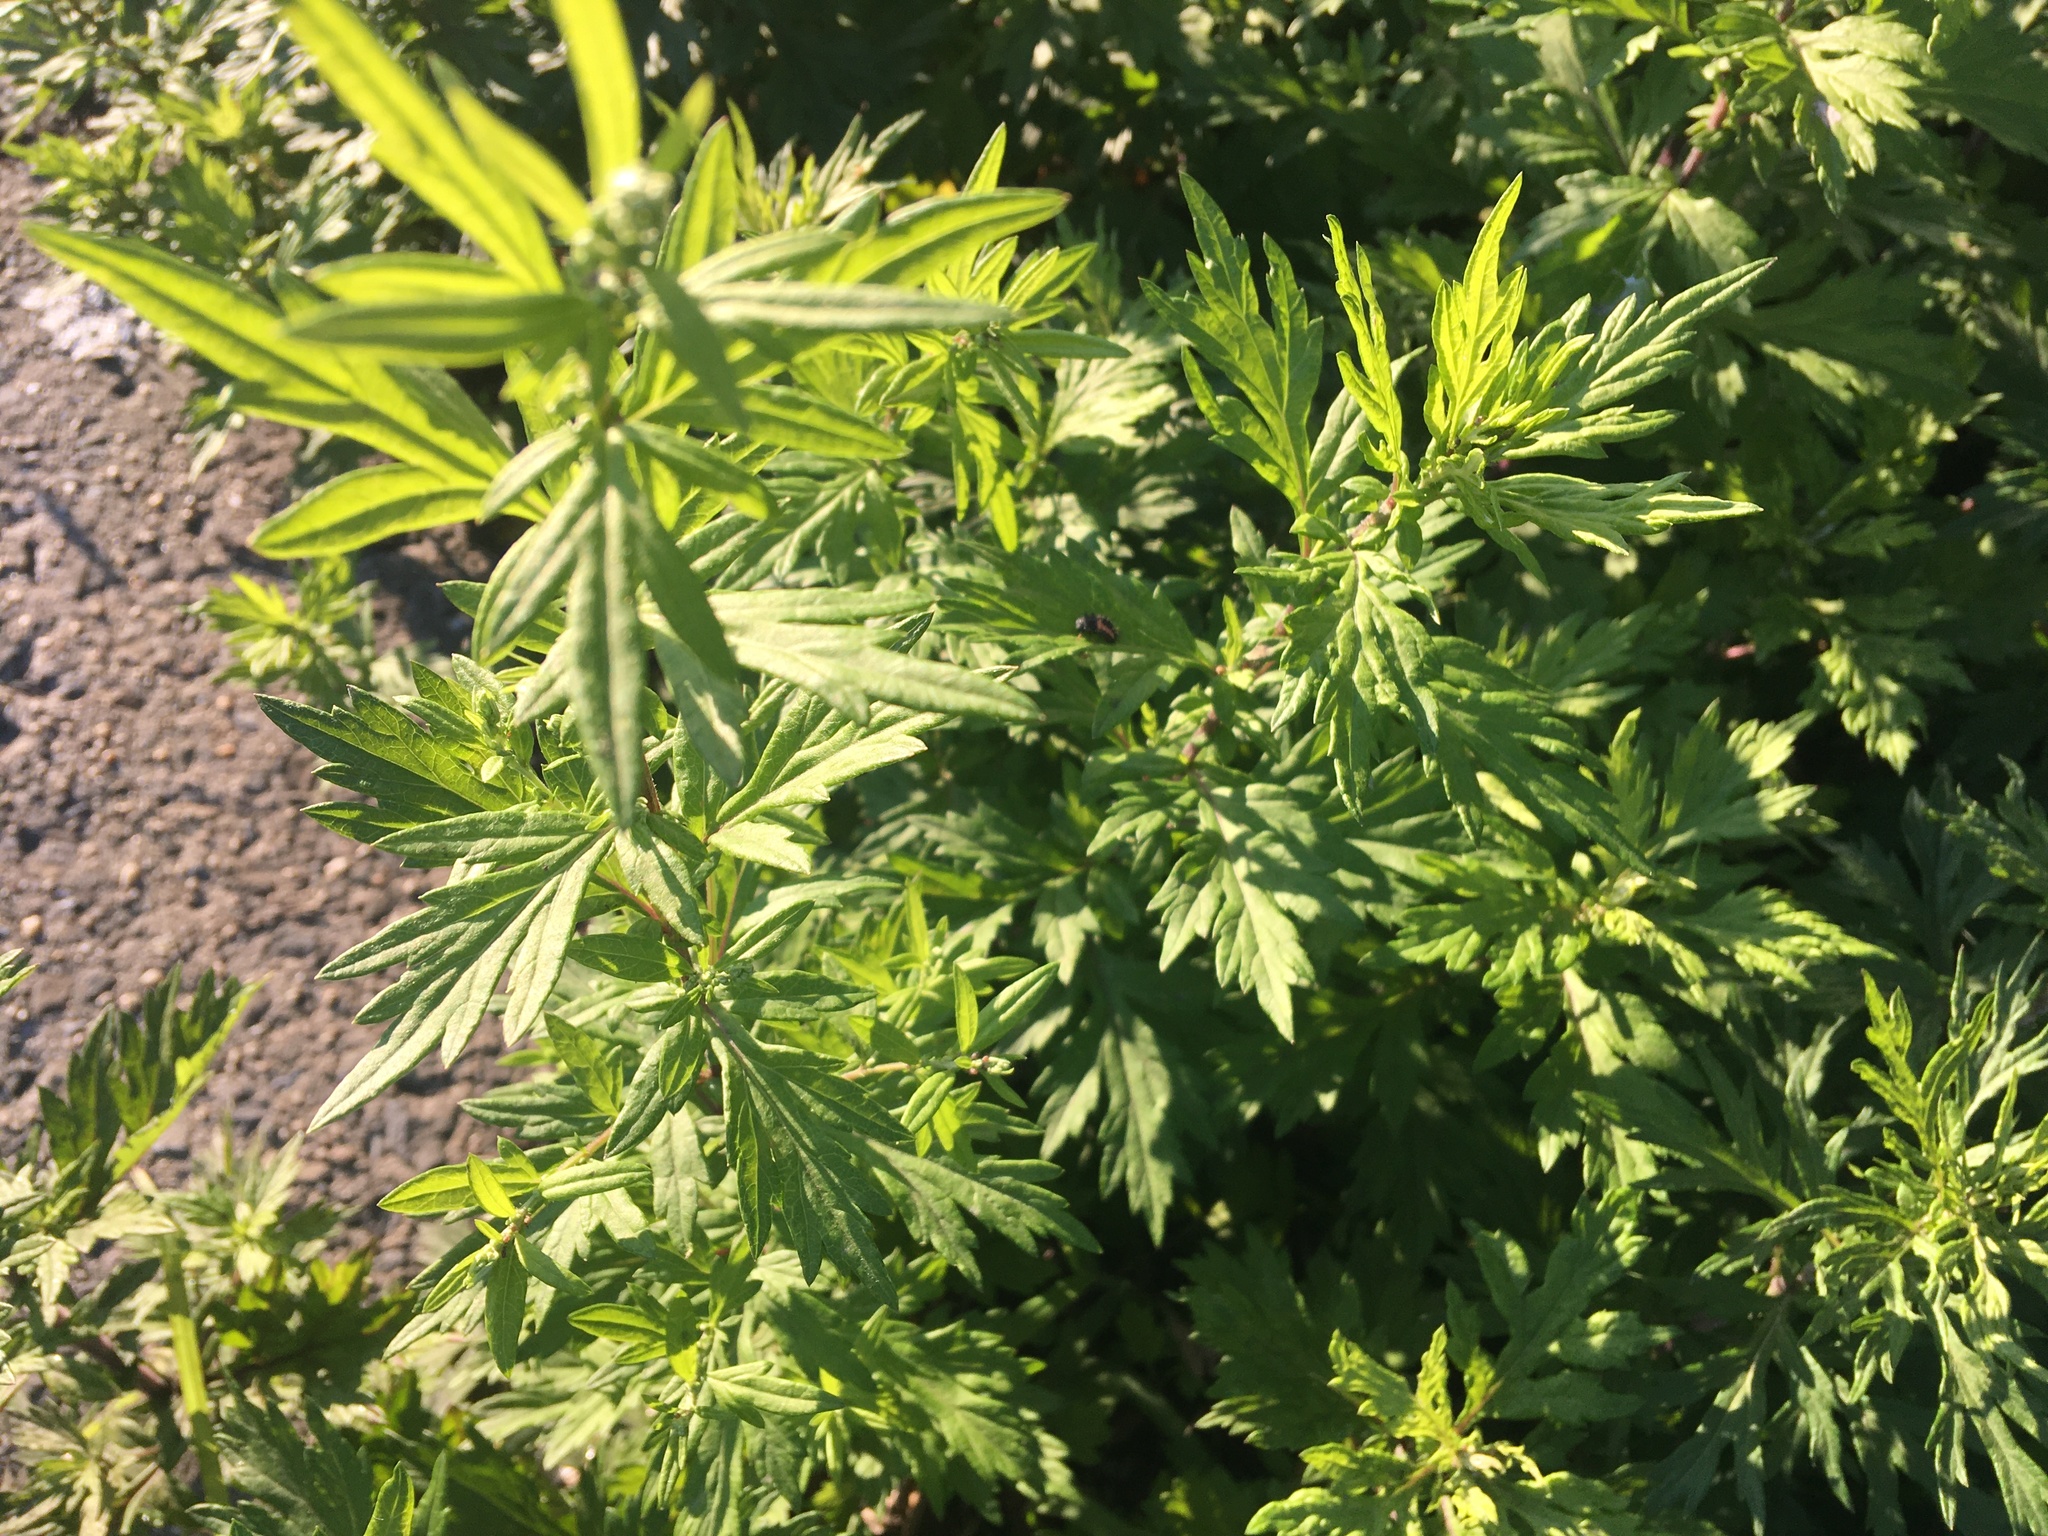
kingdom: Plantae
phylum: Tracheophyta
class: Magnoliopsida
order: Asterales
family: Asteraceae
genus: Artemisia
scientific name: Artemisia vulgaris
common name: Mugwort
